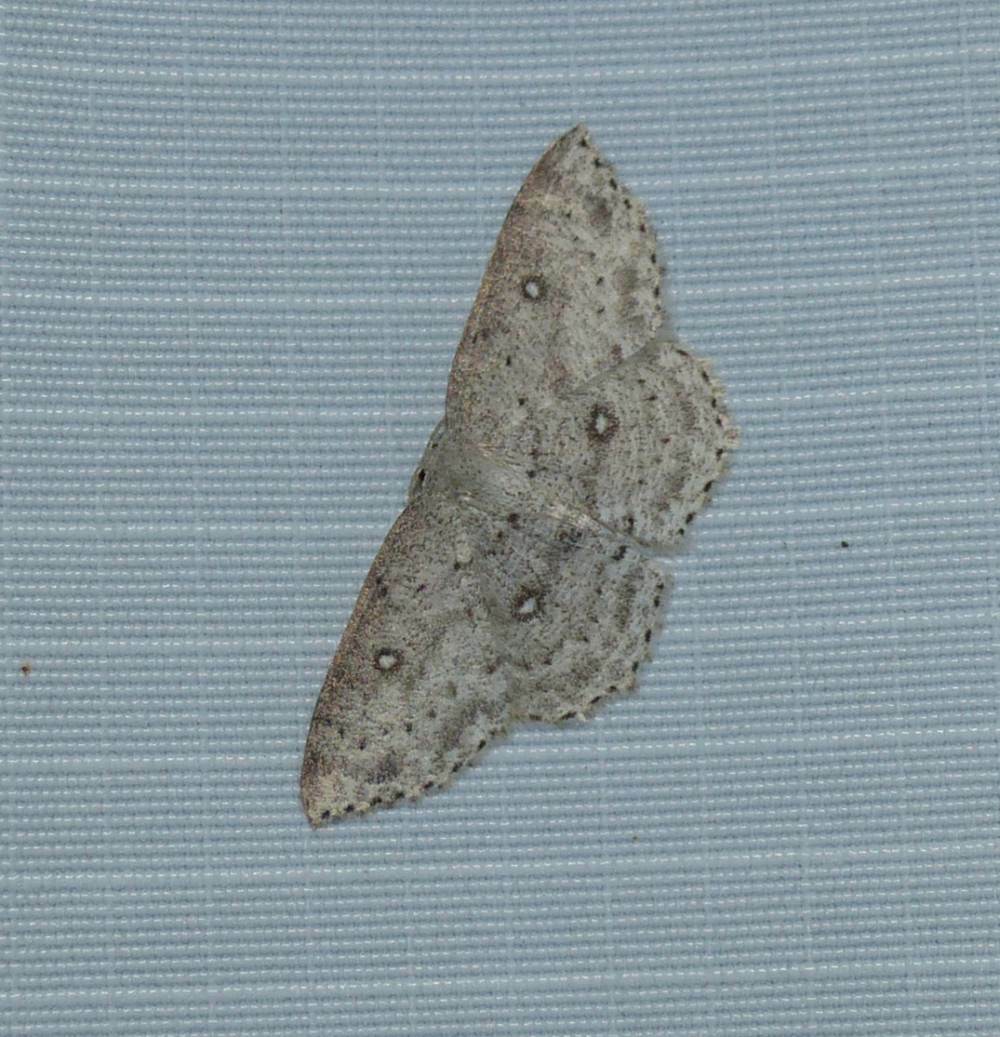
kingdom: Animalia
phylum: Arthropoda
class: Insecta
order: Lepidoptera
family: Geometridae
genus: Cyclophora
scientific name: Cyclophora pendulinaria
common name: Sweet fern geometer
